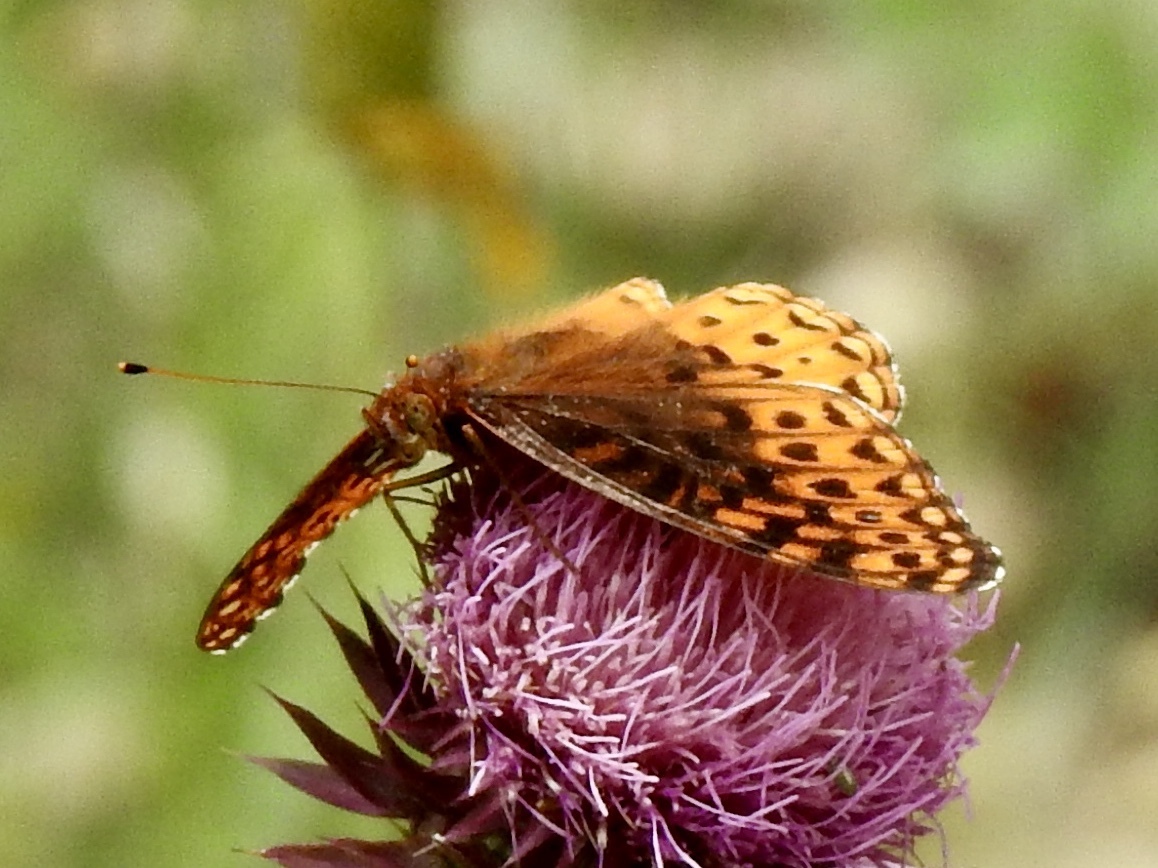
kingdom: Animalia
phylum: Arthropoda
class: Insecta
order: Lepidoptera
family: Nymphalidae
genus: Speyeria
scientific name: Speyeria atlantis
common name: Atlantis fritillary
